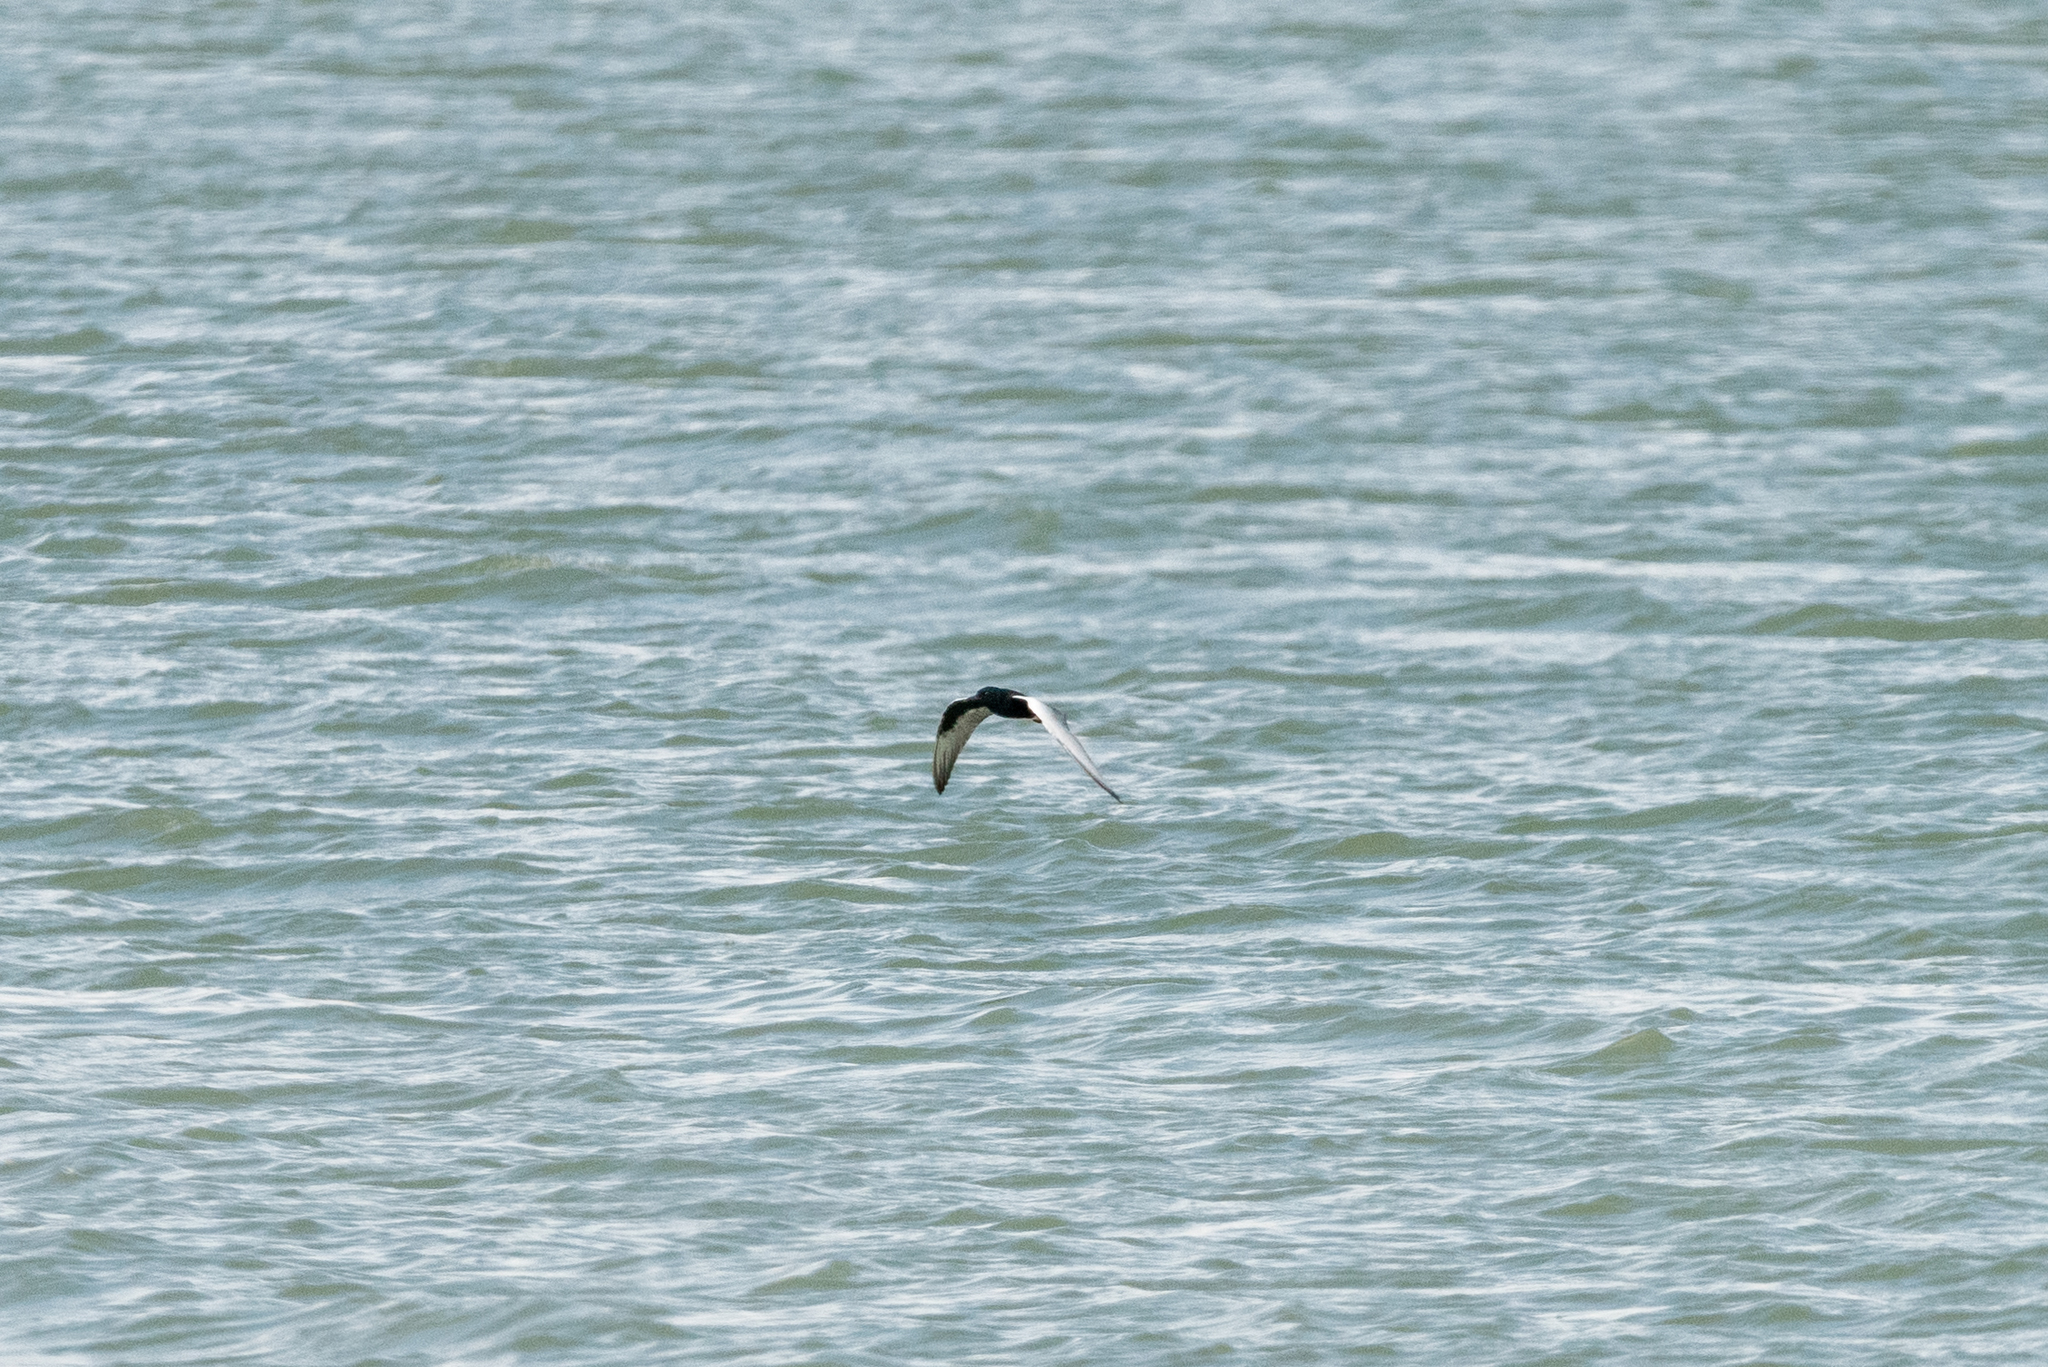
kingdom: Animalia
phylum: Chordata
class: Aves
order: Charadriiformes
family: Laridae
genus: Chlidonias
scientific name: Chlidonias leucopterus
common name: White-winged tern
